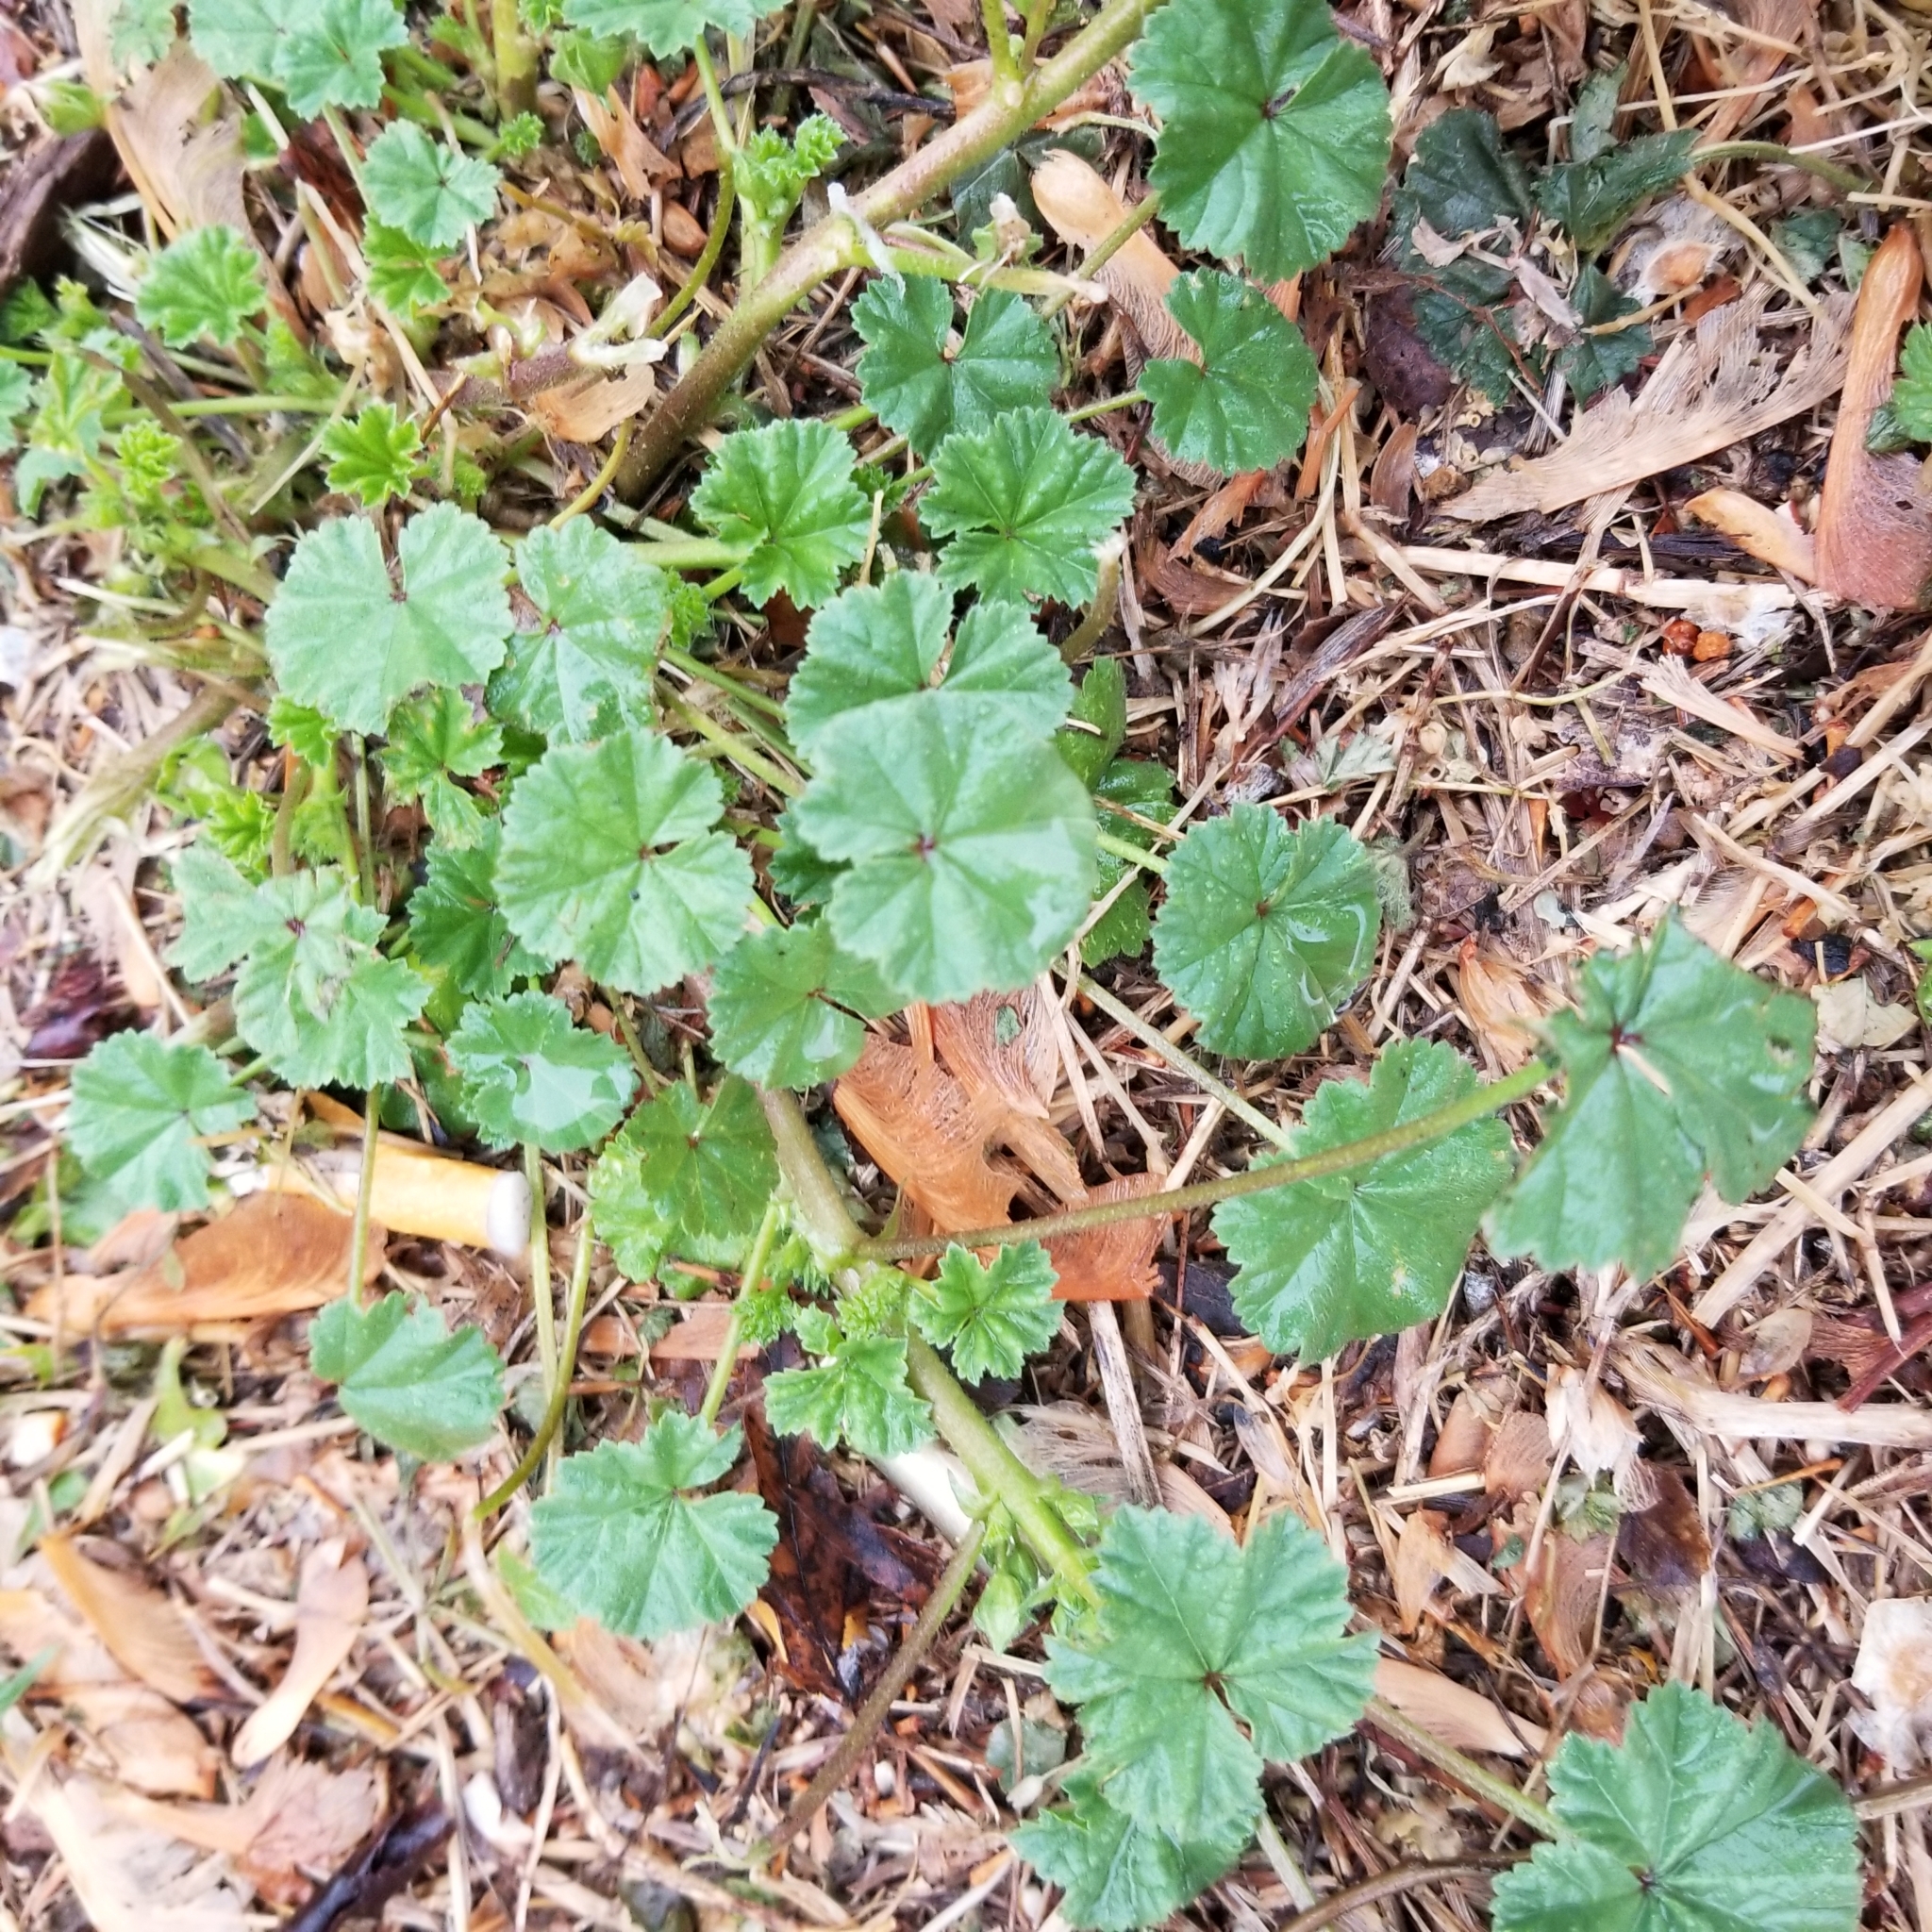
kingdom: Plantae
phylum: Tracheophyta
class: Magnoliopsida
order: Malvales
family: Malvaceae
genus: Malva
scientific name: Malva neglecta
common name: Common mallow
